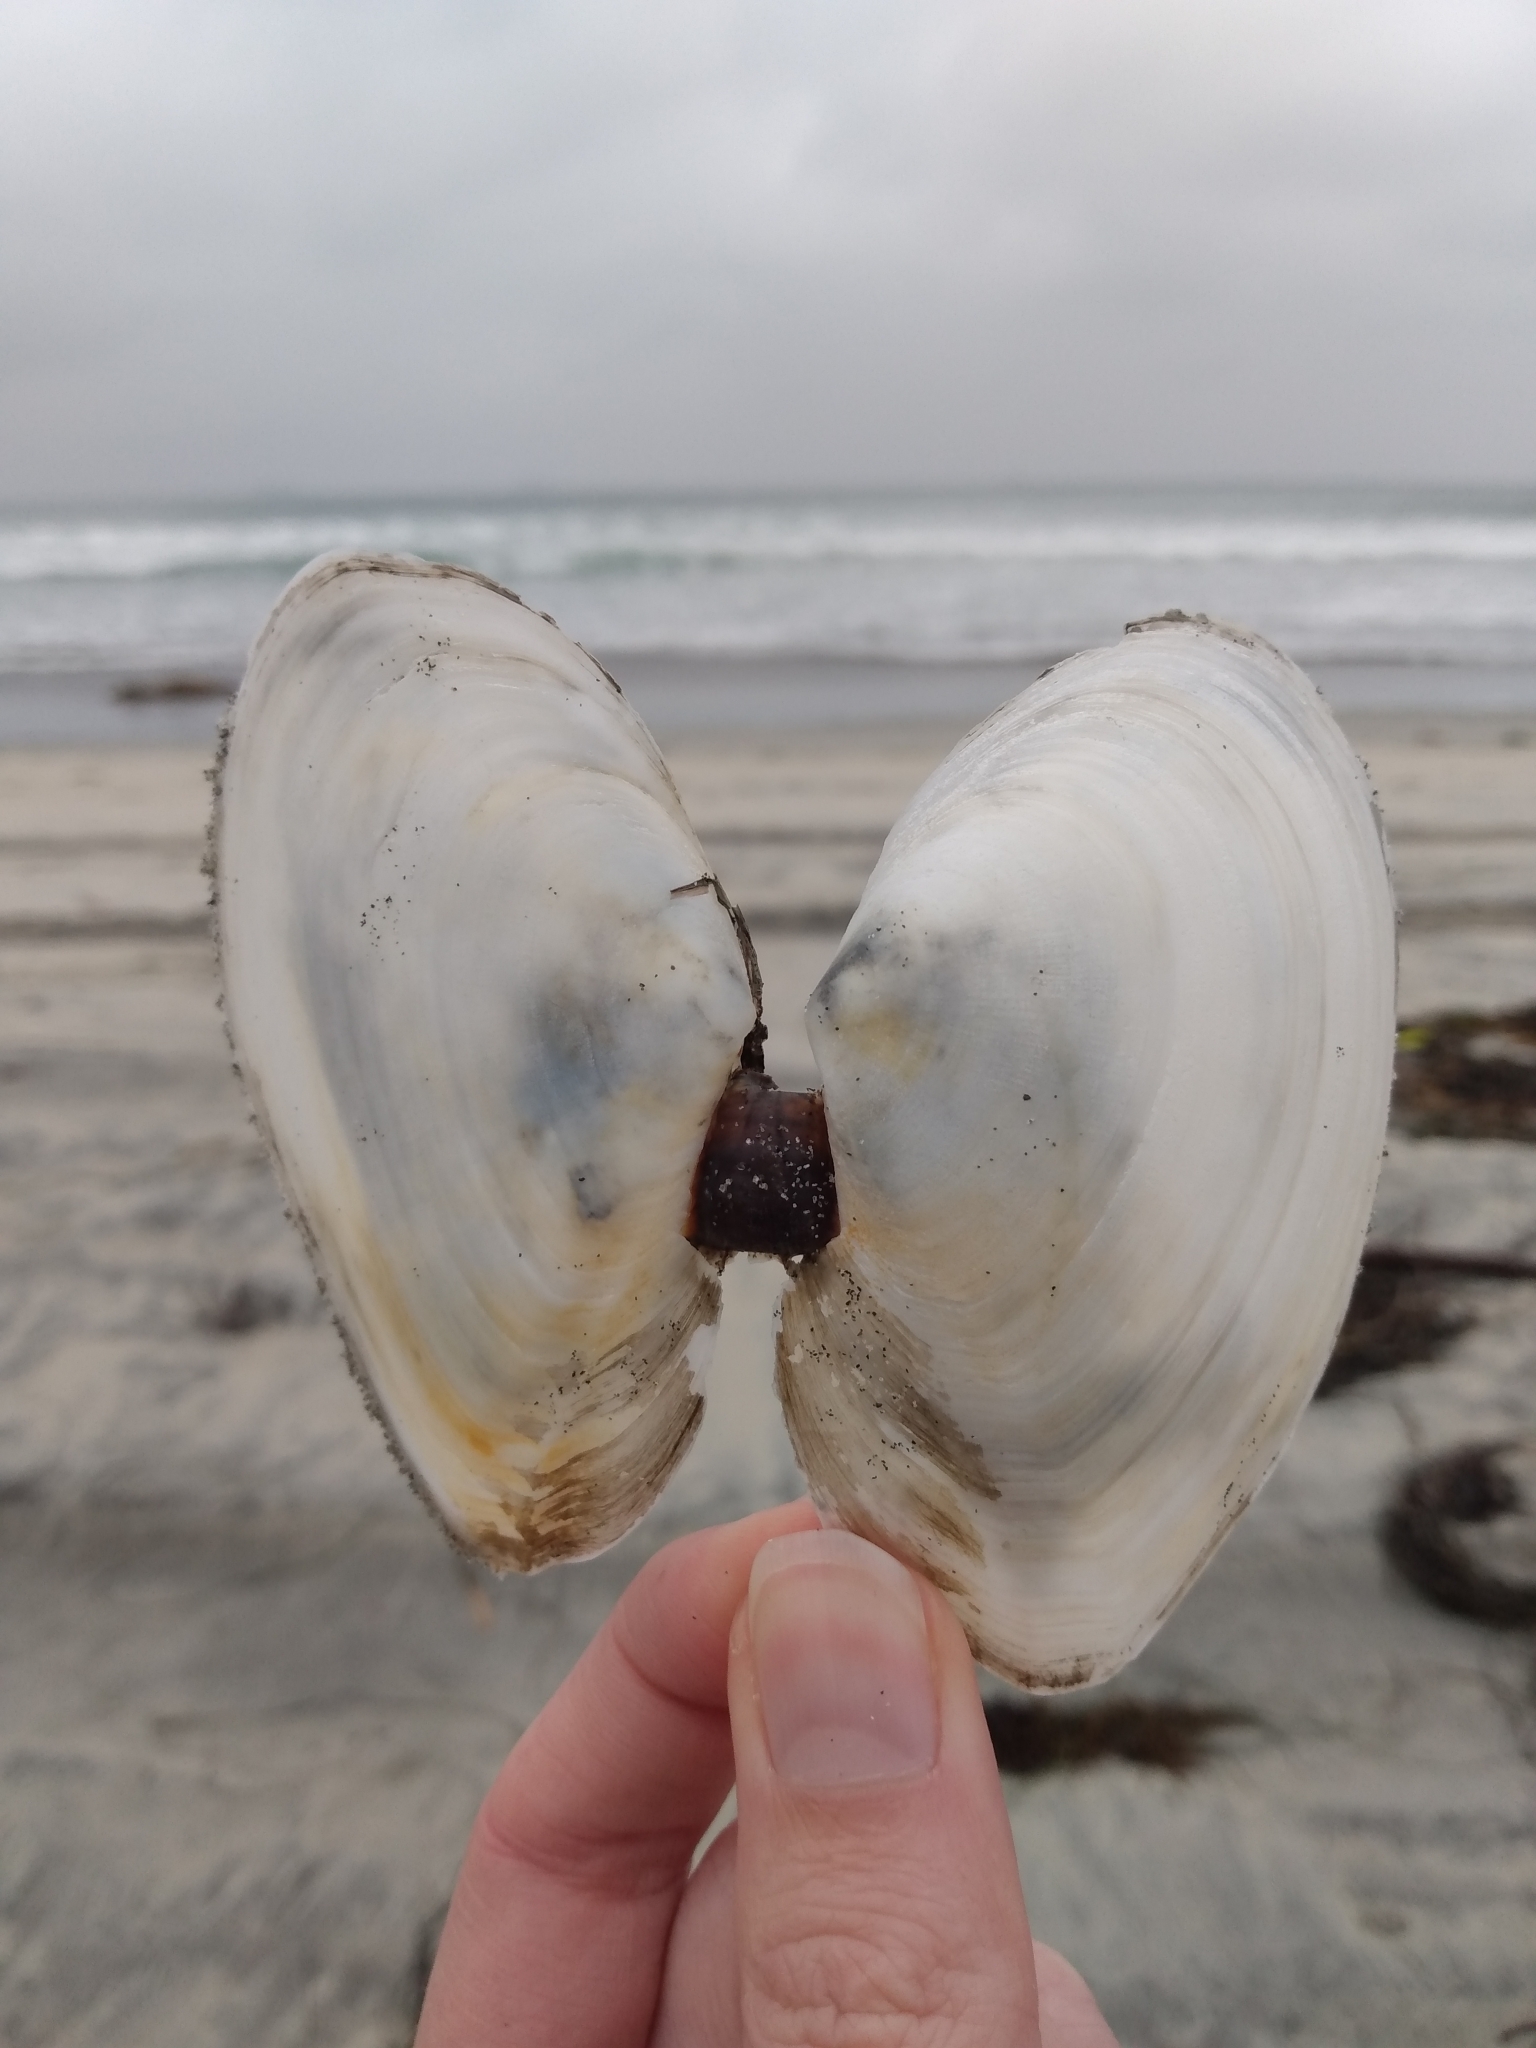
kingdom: Animalia
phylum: Mollusca
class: Bivalvia
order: Cardiida
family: Tellinidae
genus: Rexithaerus
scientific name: Rexithaerus secta
